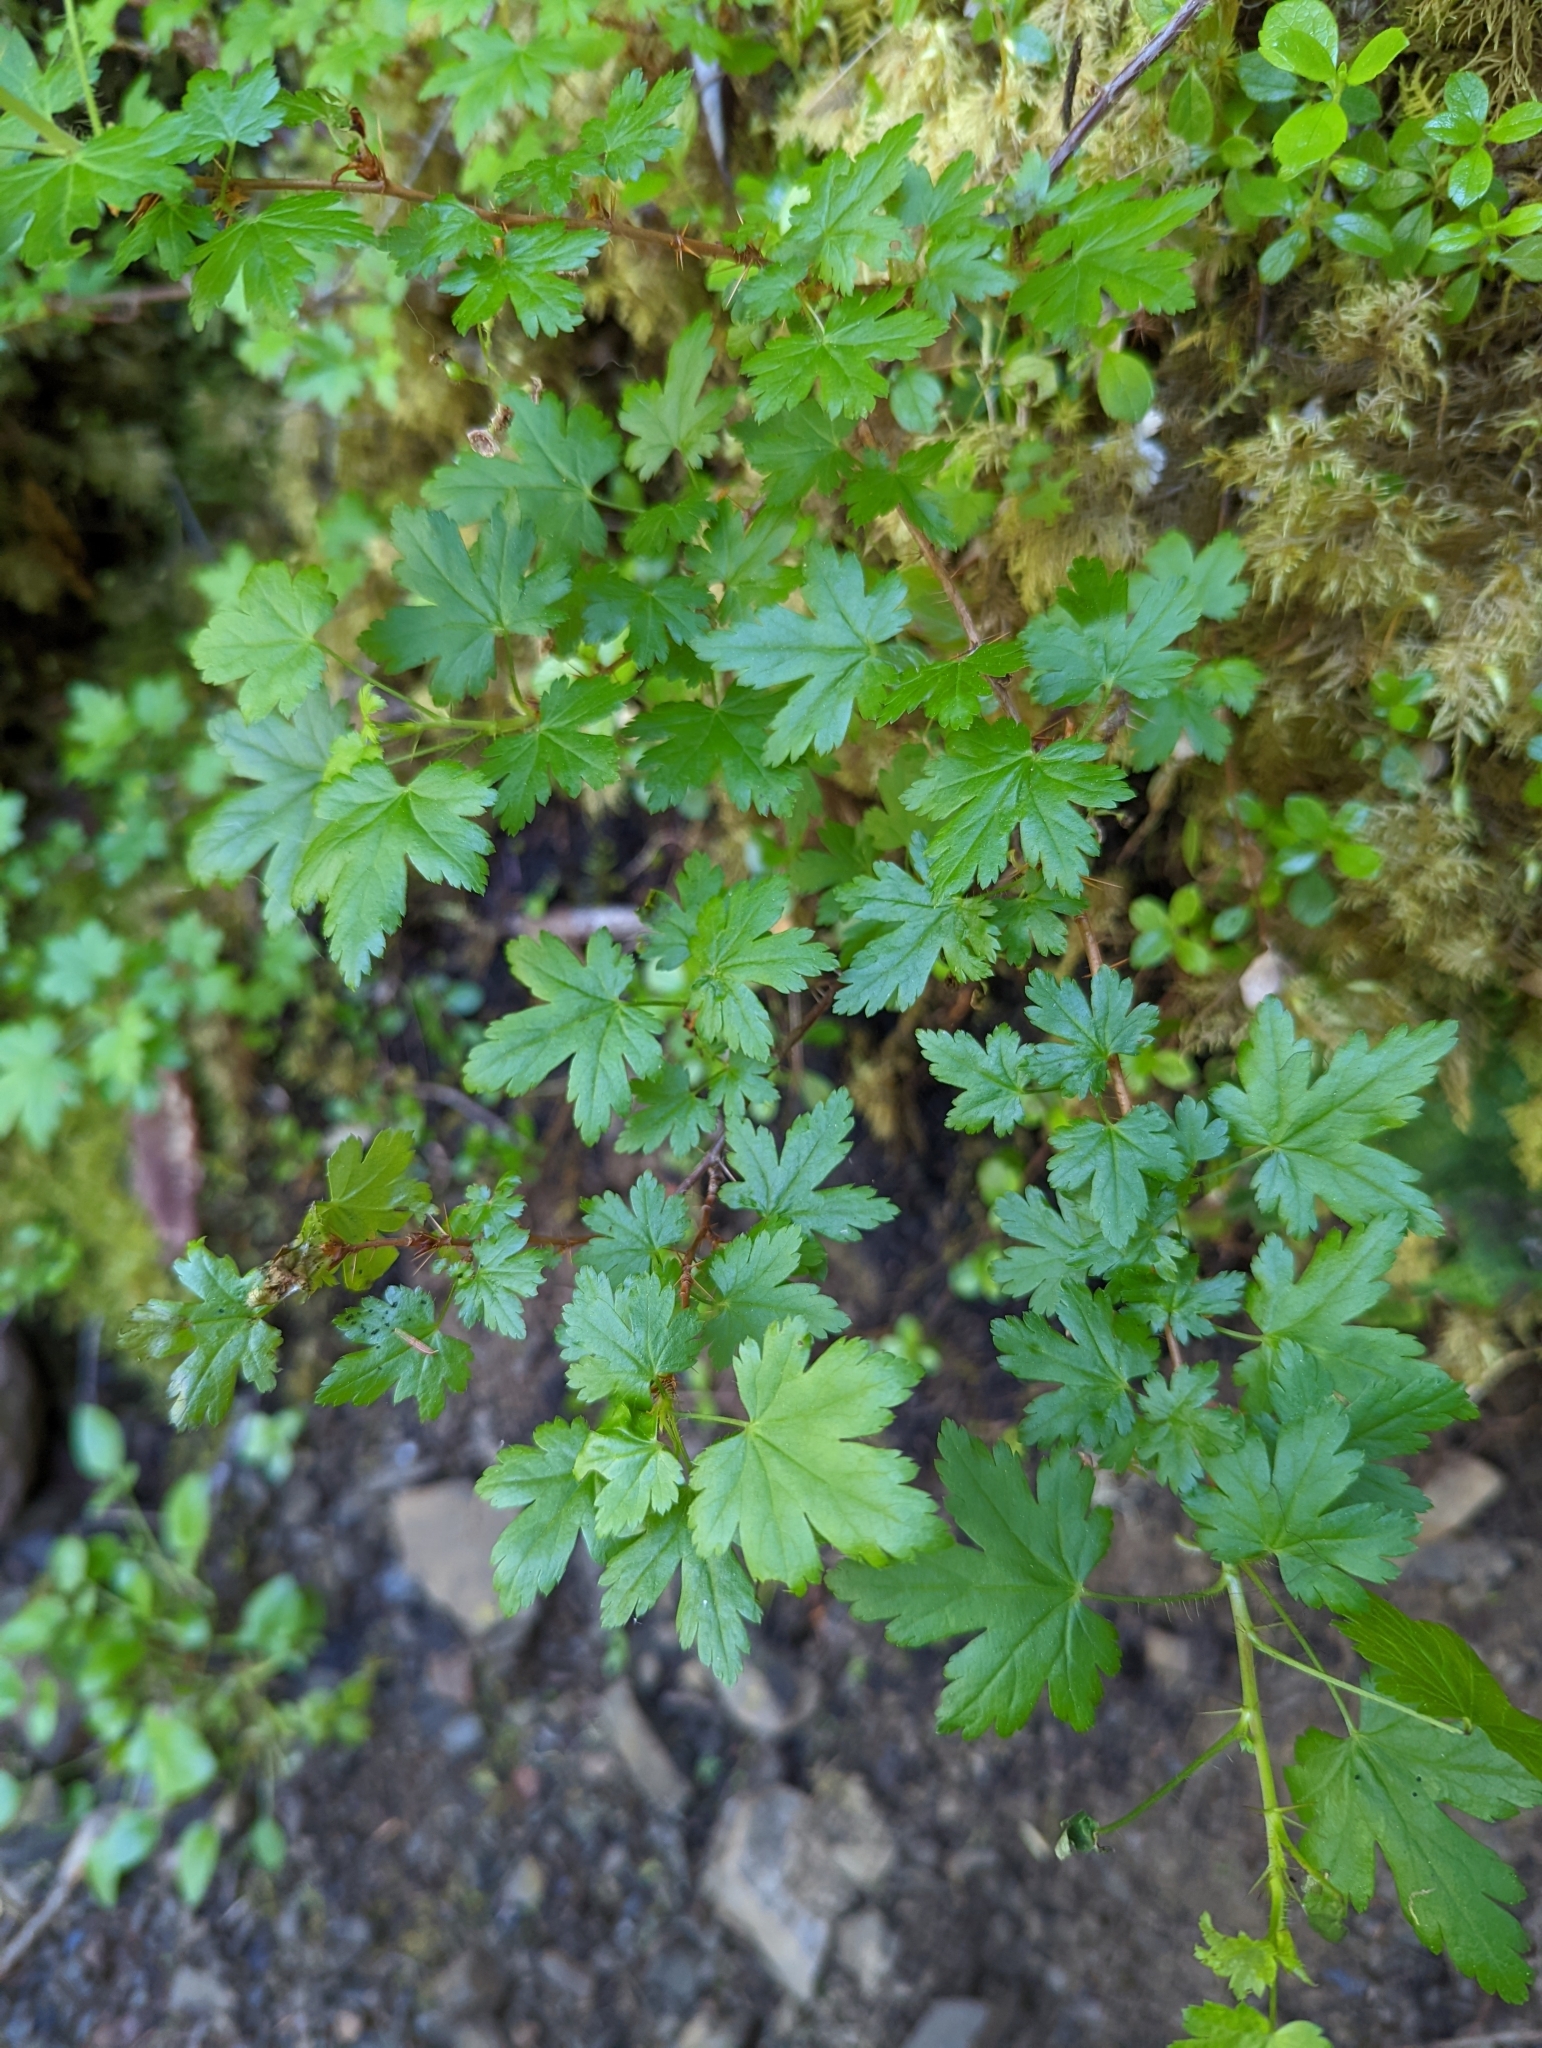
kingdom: Plantae
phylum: Tracheophyta
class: Magnoliopsida
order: Saxifragales
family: Grossulariaceae
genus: Ribes
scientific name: Ribes lacustre
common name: Black gooseberry
